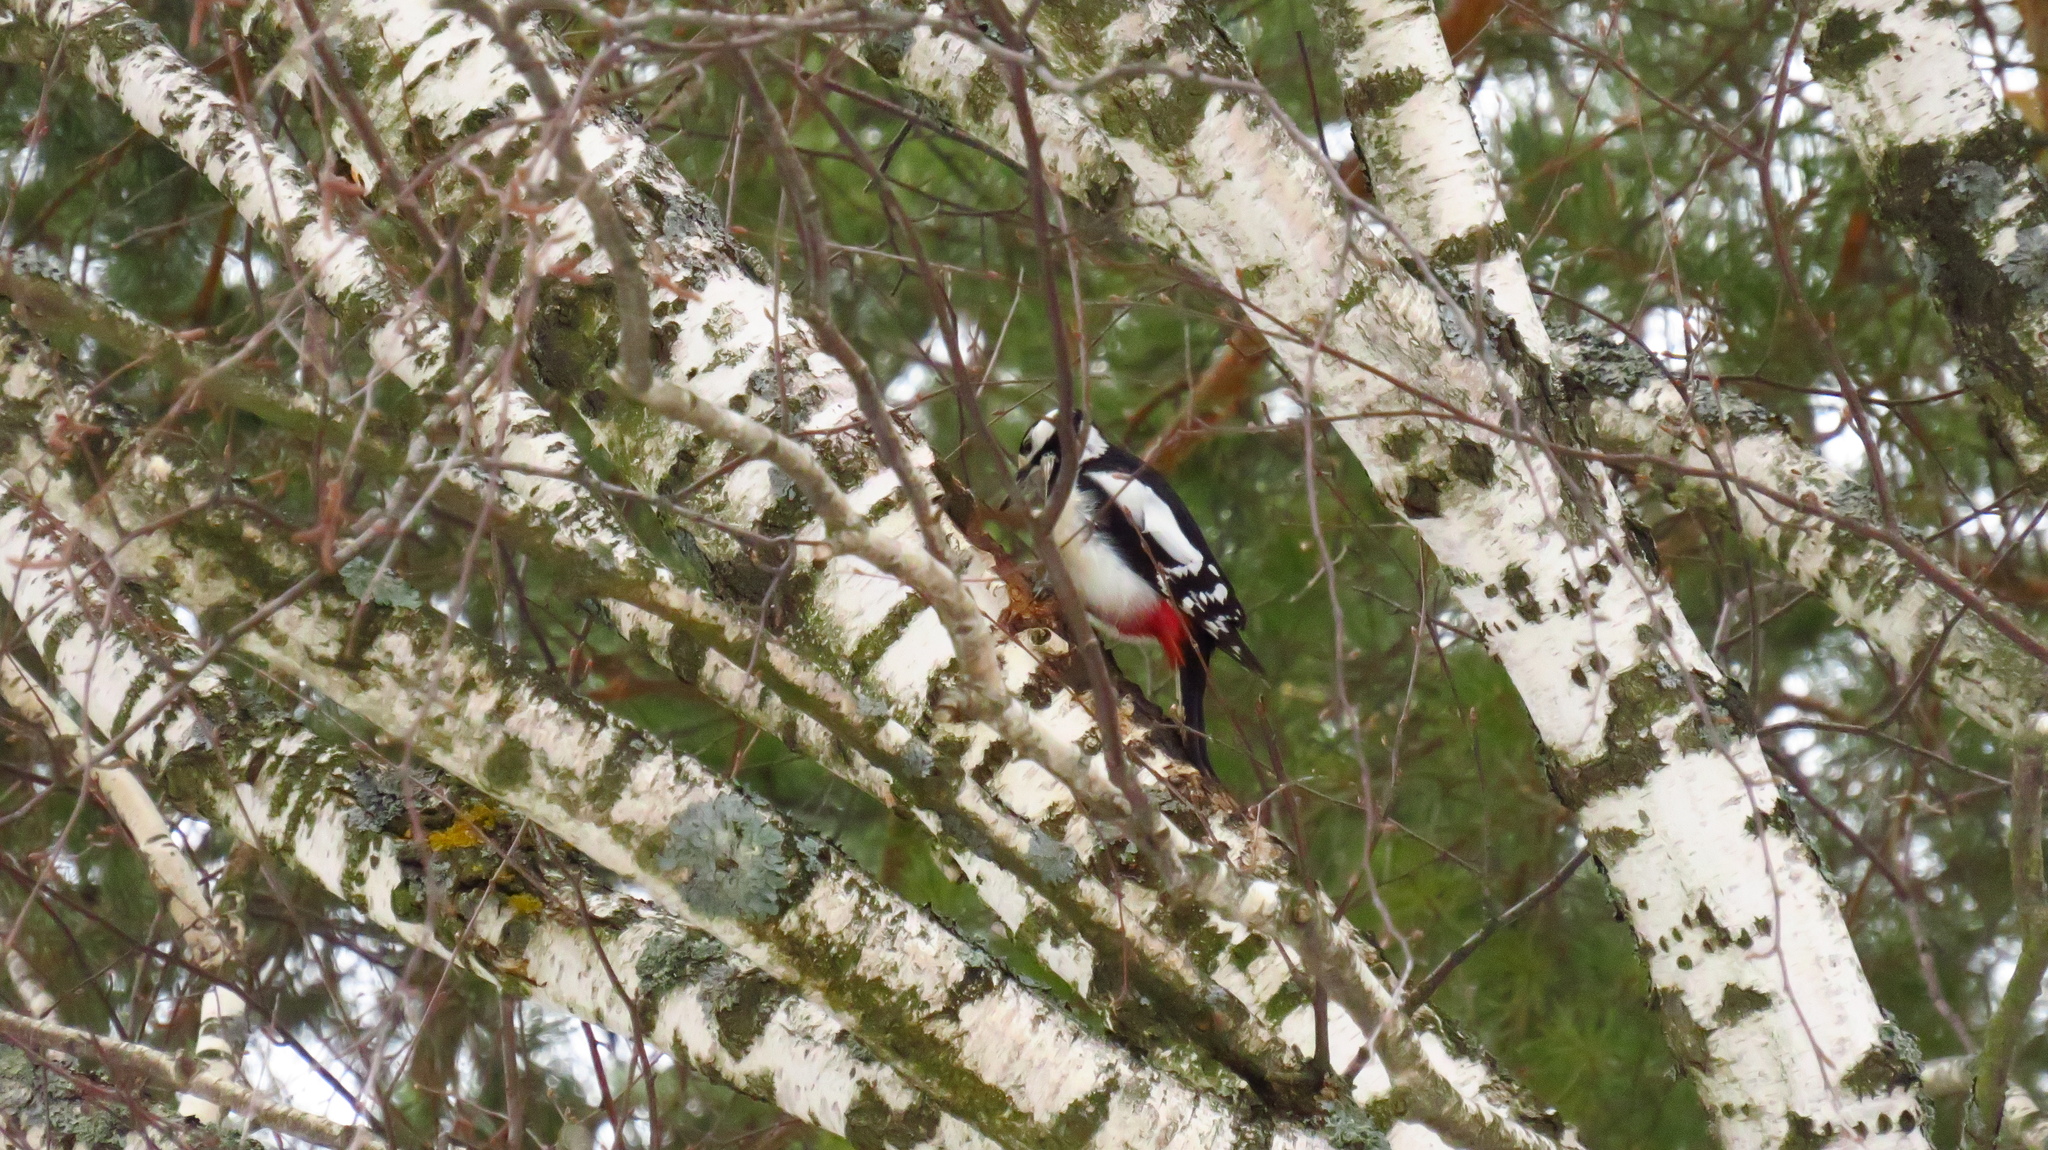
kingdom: Animalia
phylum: Chordata
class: Aves
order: Piciformes
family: Picidae
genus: Dendrocopos
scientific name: Dendrocopos major
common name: Great spotted woodpecker
